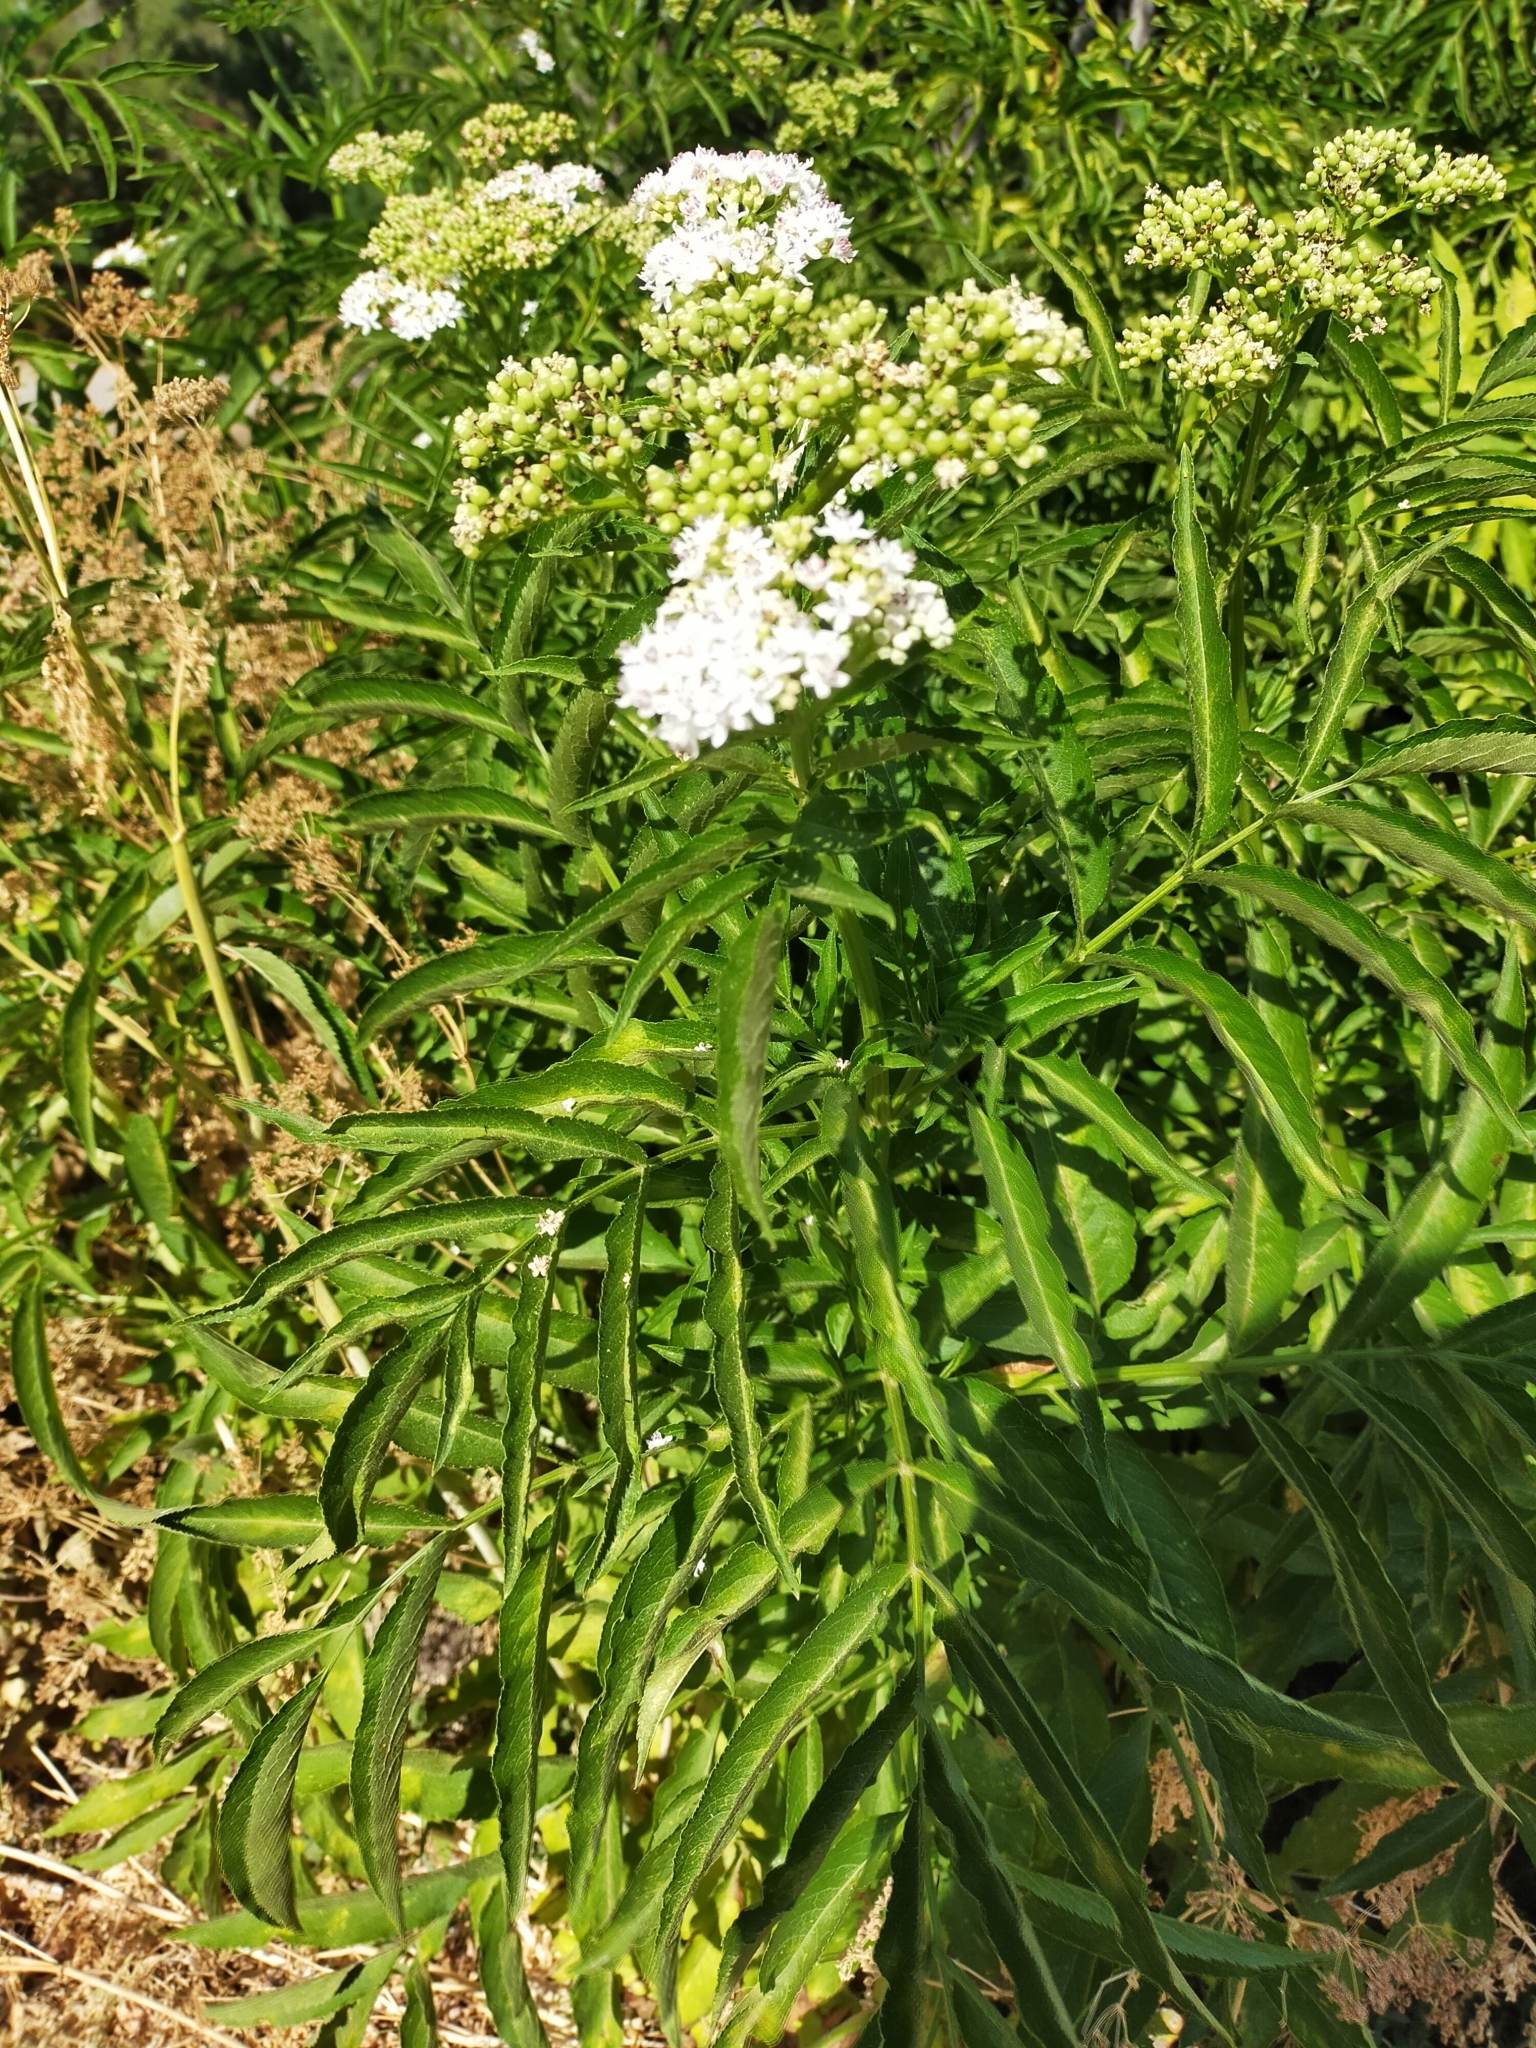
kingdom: Plantae
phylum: Tracheophyta
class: Magnoliopsida
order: Dipsacales
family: Viburnaceae
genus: Sambucus
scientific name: Sambucus ebulus
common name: Dwarf elder
